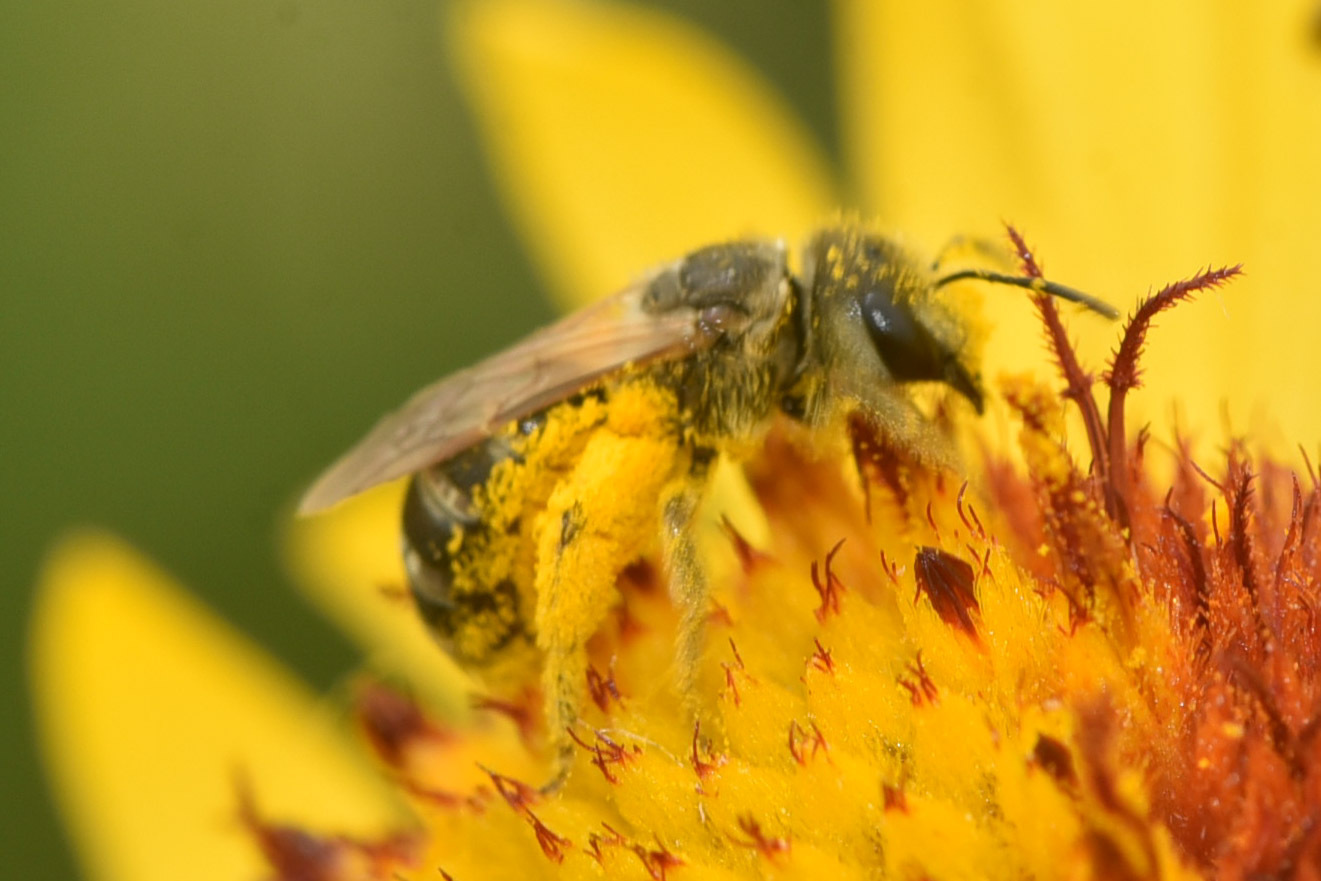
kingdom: Animalia
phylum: Arthropoda
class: Insecta
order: Hymenoptera
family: Halictidae
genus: Halictus
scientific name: Halictus ligatus
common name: Ligated furrow bee
